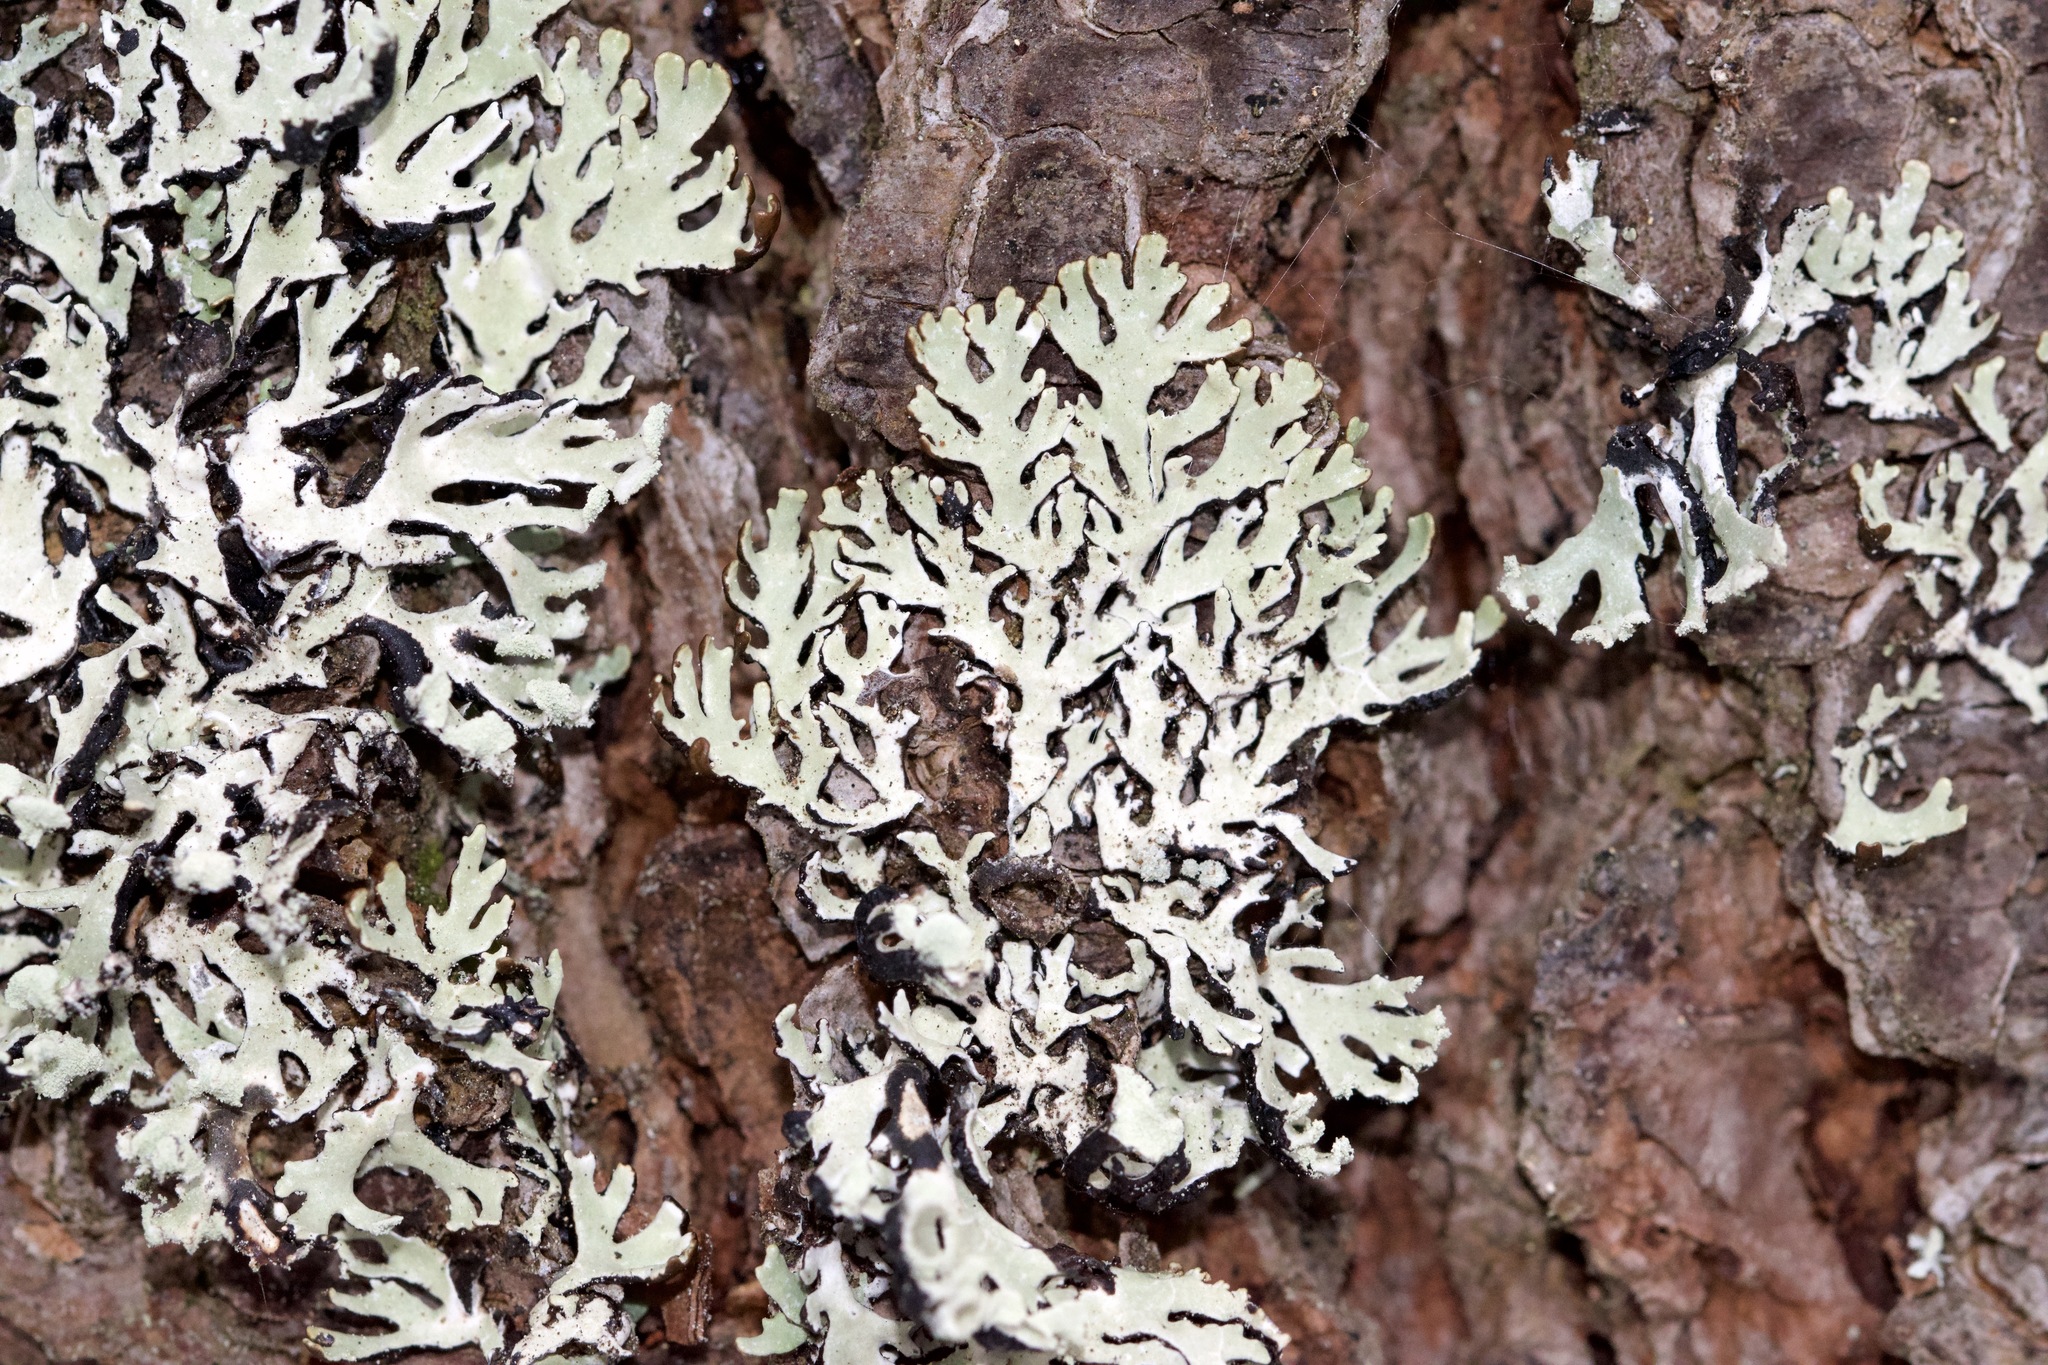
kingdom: Fungi
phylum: Ascomycota
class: Lecanoromycetes
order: Lecanorales
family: Parmeliaceae
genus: Hypogymnia
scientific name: Hypogymnia physodes
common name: Dark crottle
